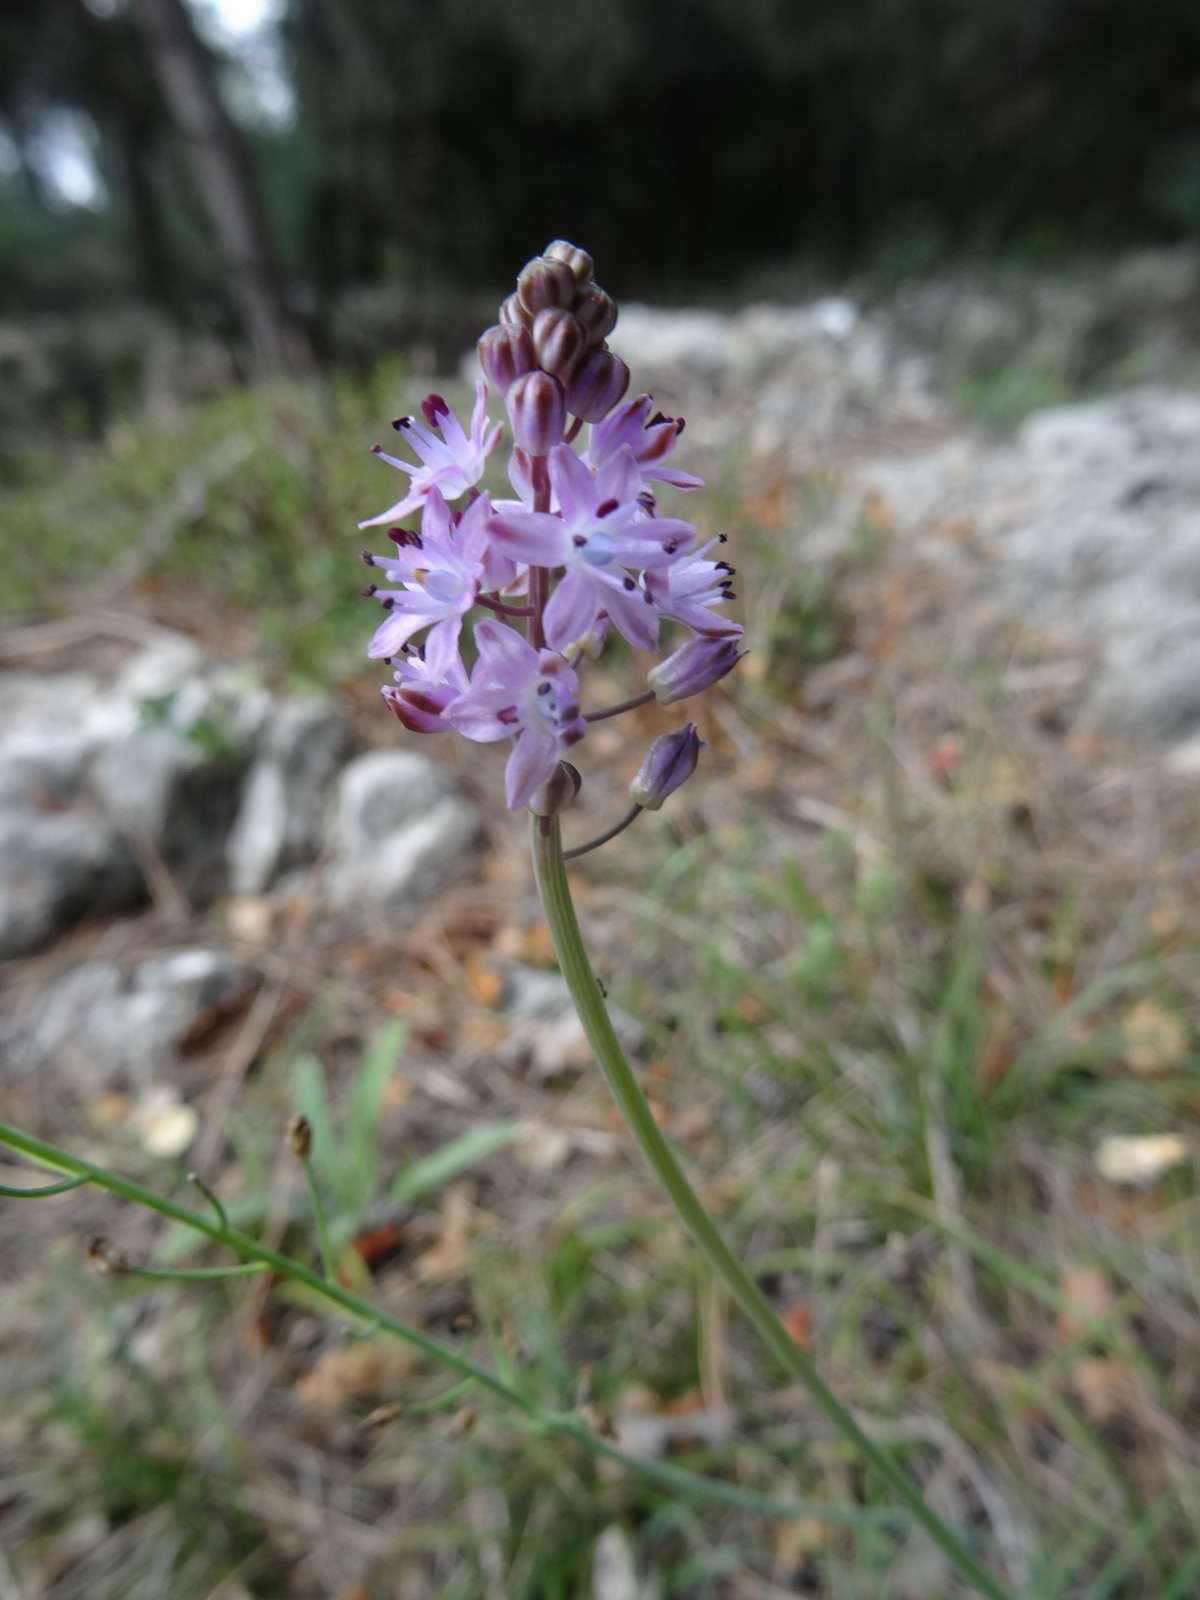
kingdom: Plantae
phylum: Tracheophyta
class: Liliopsida
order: Asparagales
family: Asparagaceae
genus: Prospero
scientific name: Prospero autumnale
